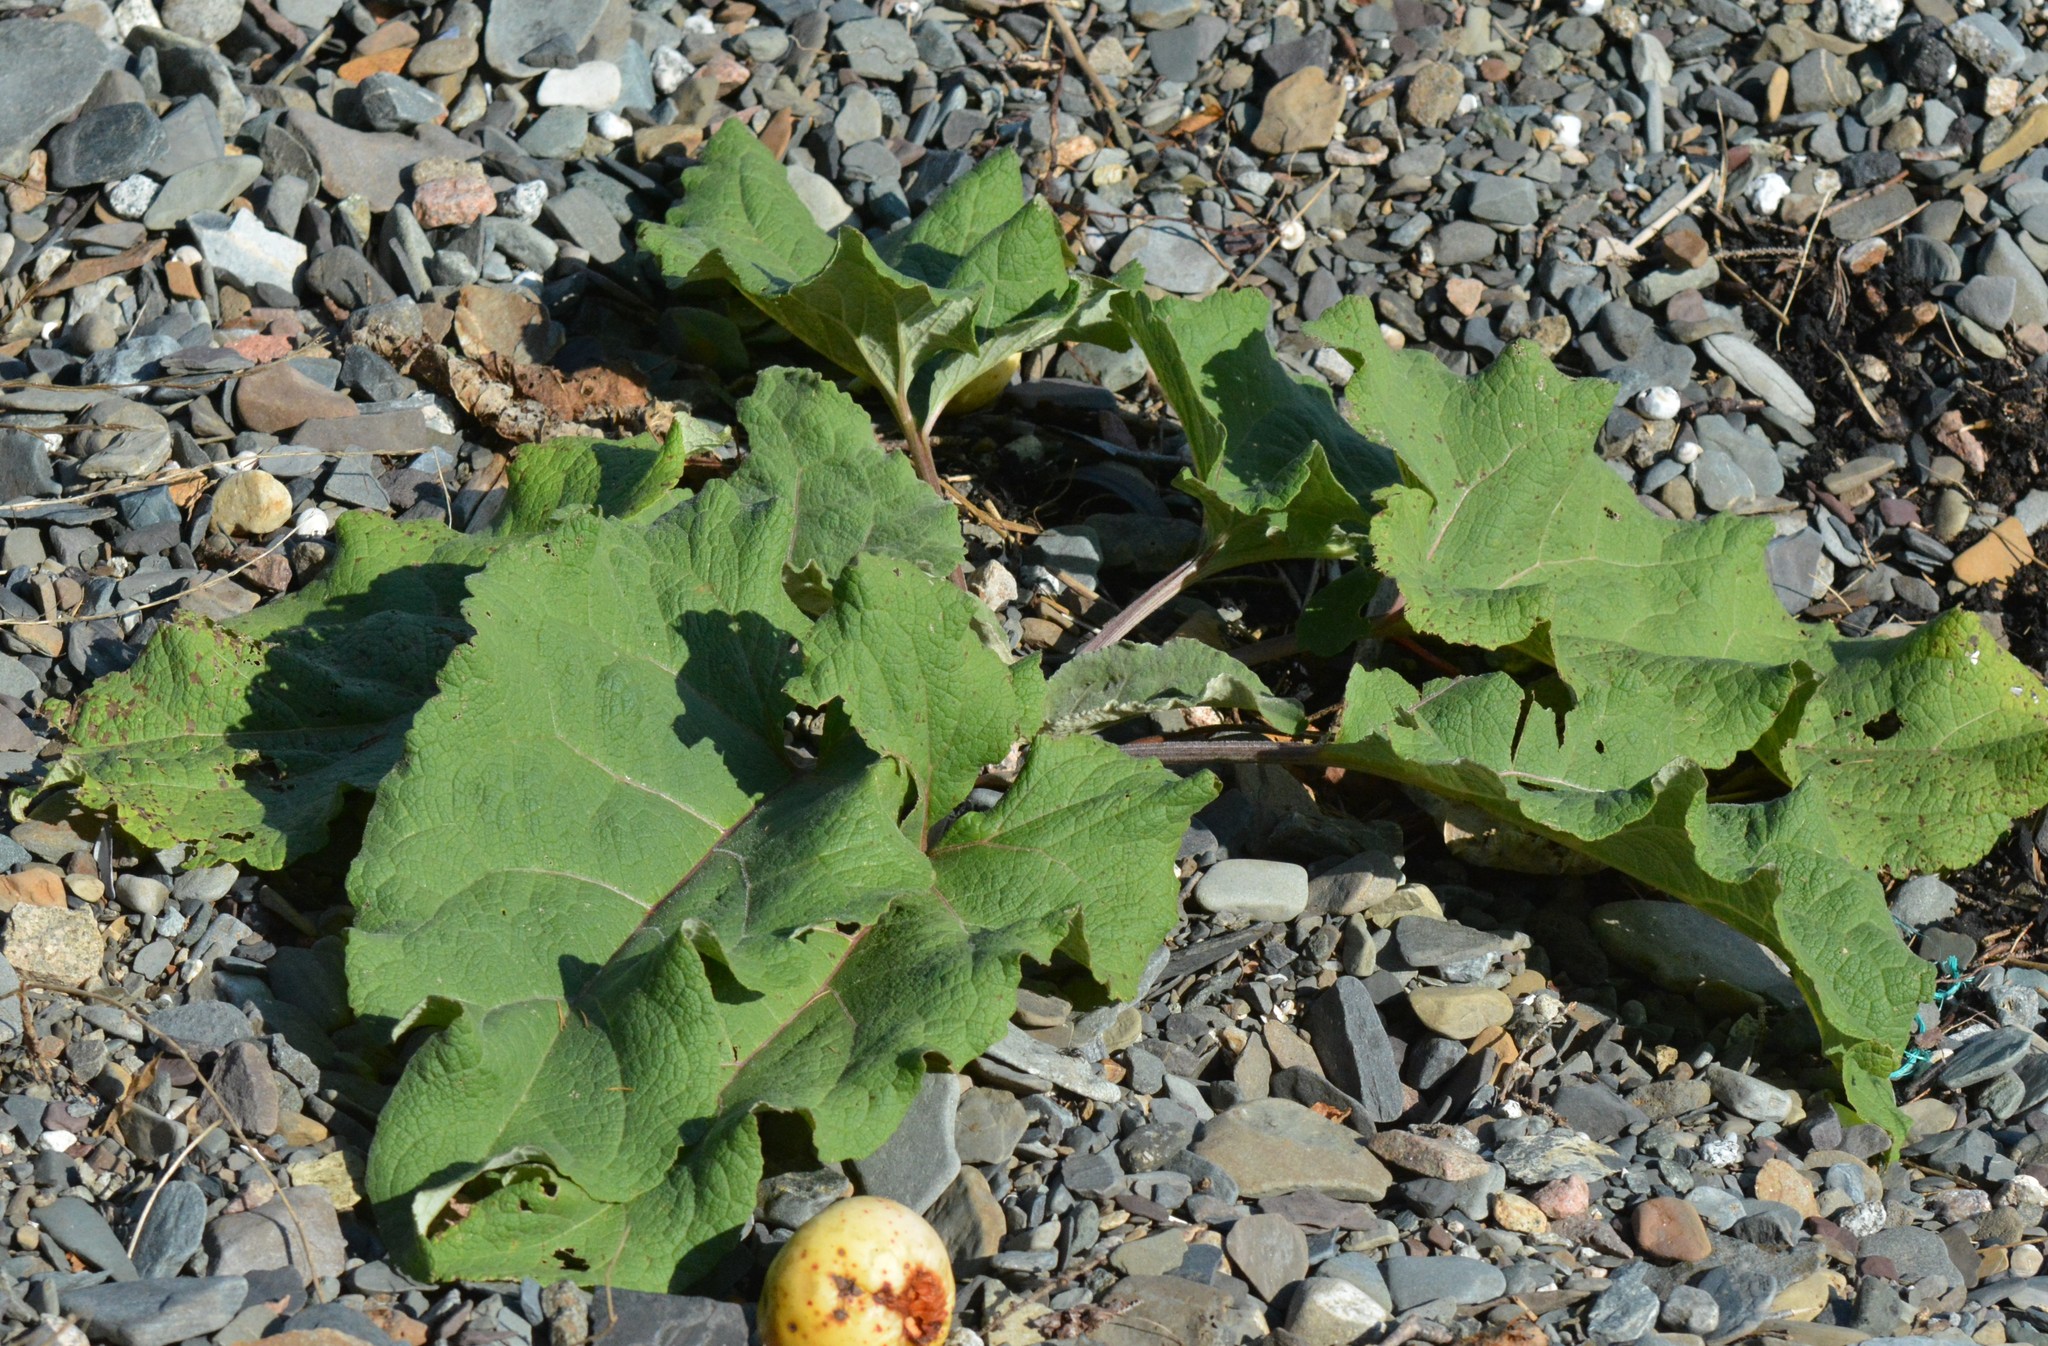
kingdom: Plantae
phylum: Tracheophyta
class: Magnoliopsida
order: Asterales
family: Asteraceae
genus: Arctium
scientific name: Arctium
